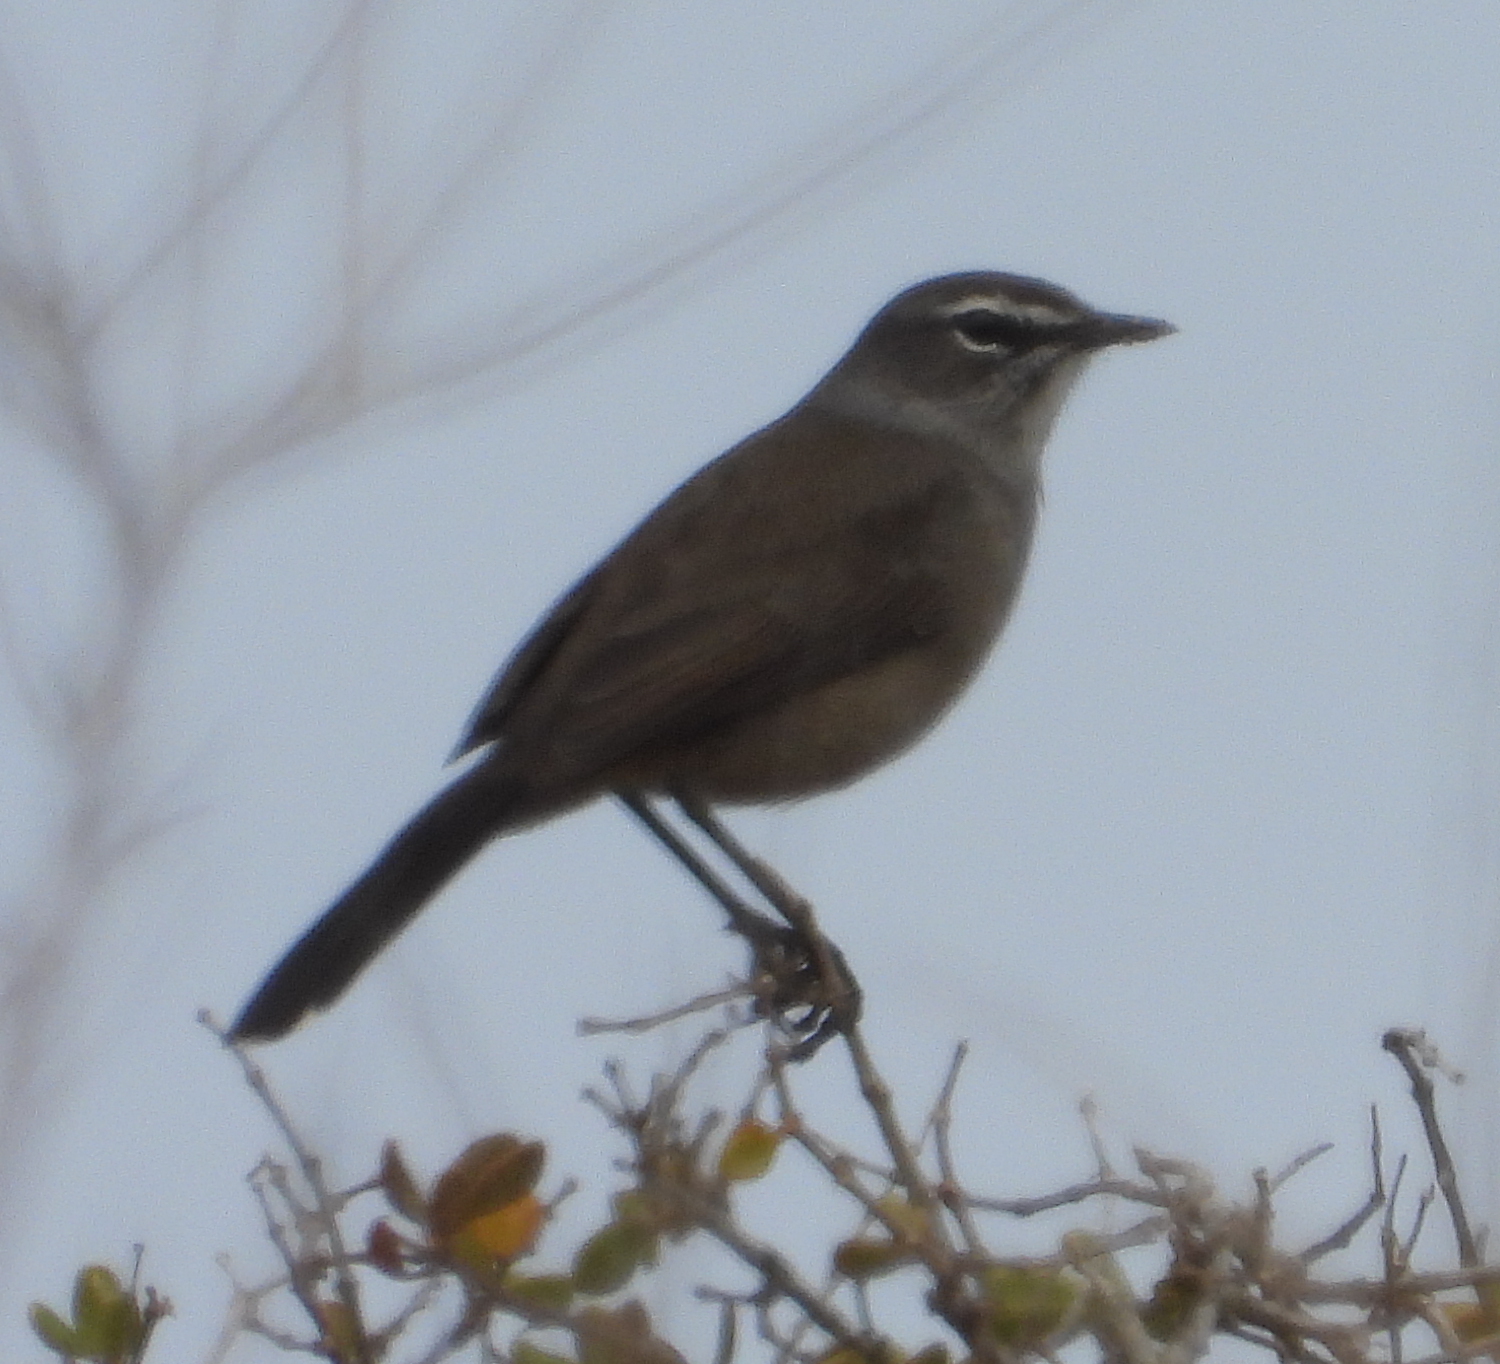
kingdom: Animalia
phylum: Chordata
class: Aves
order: Passeriformes
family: Muscicapidae
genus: Erythropygia
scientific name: Erythropygia coryphoeus
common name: Karoo scrub robin
